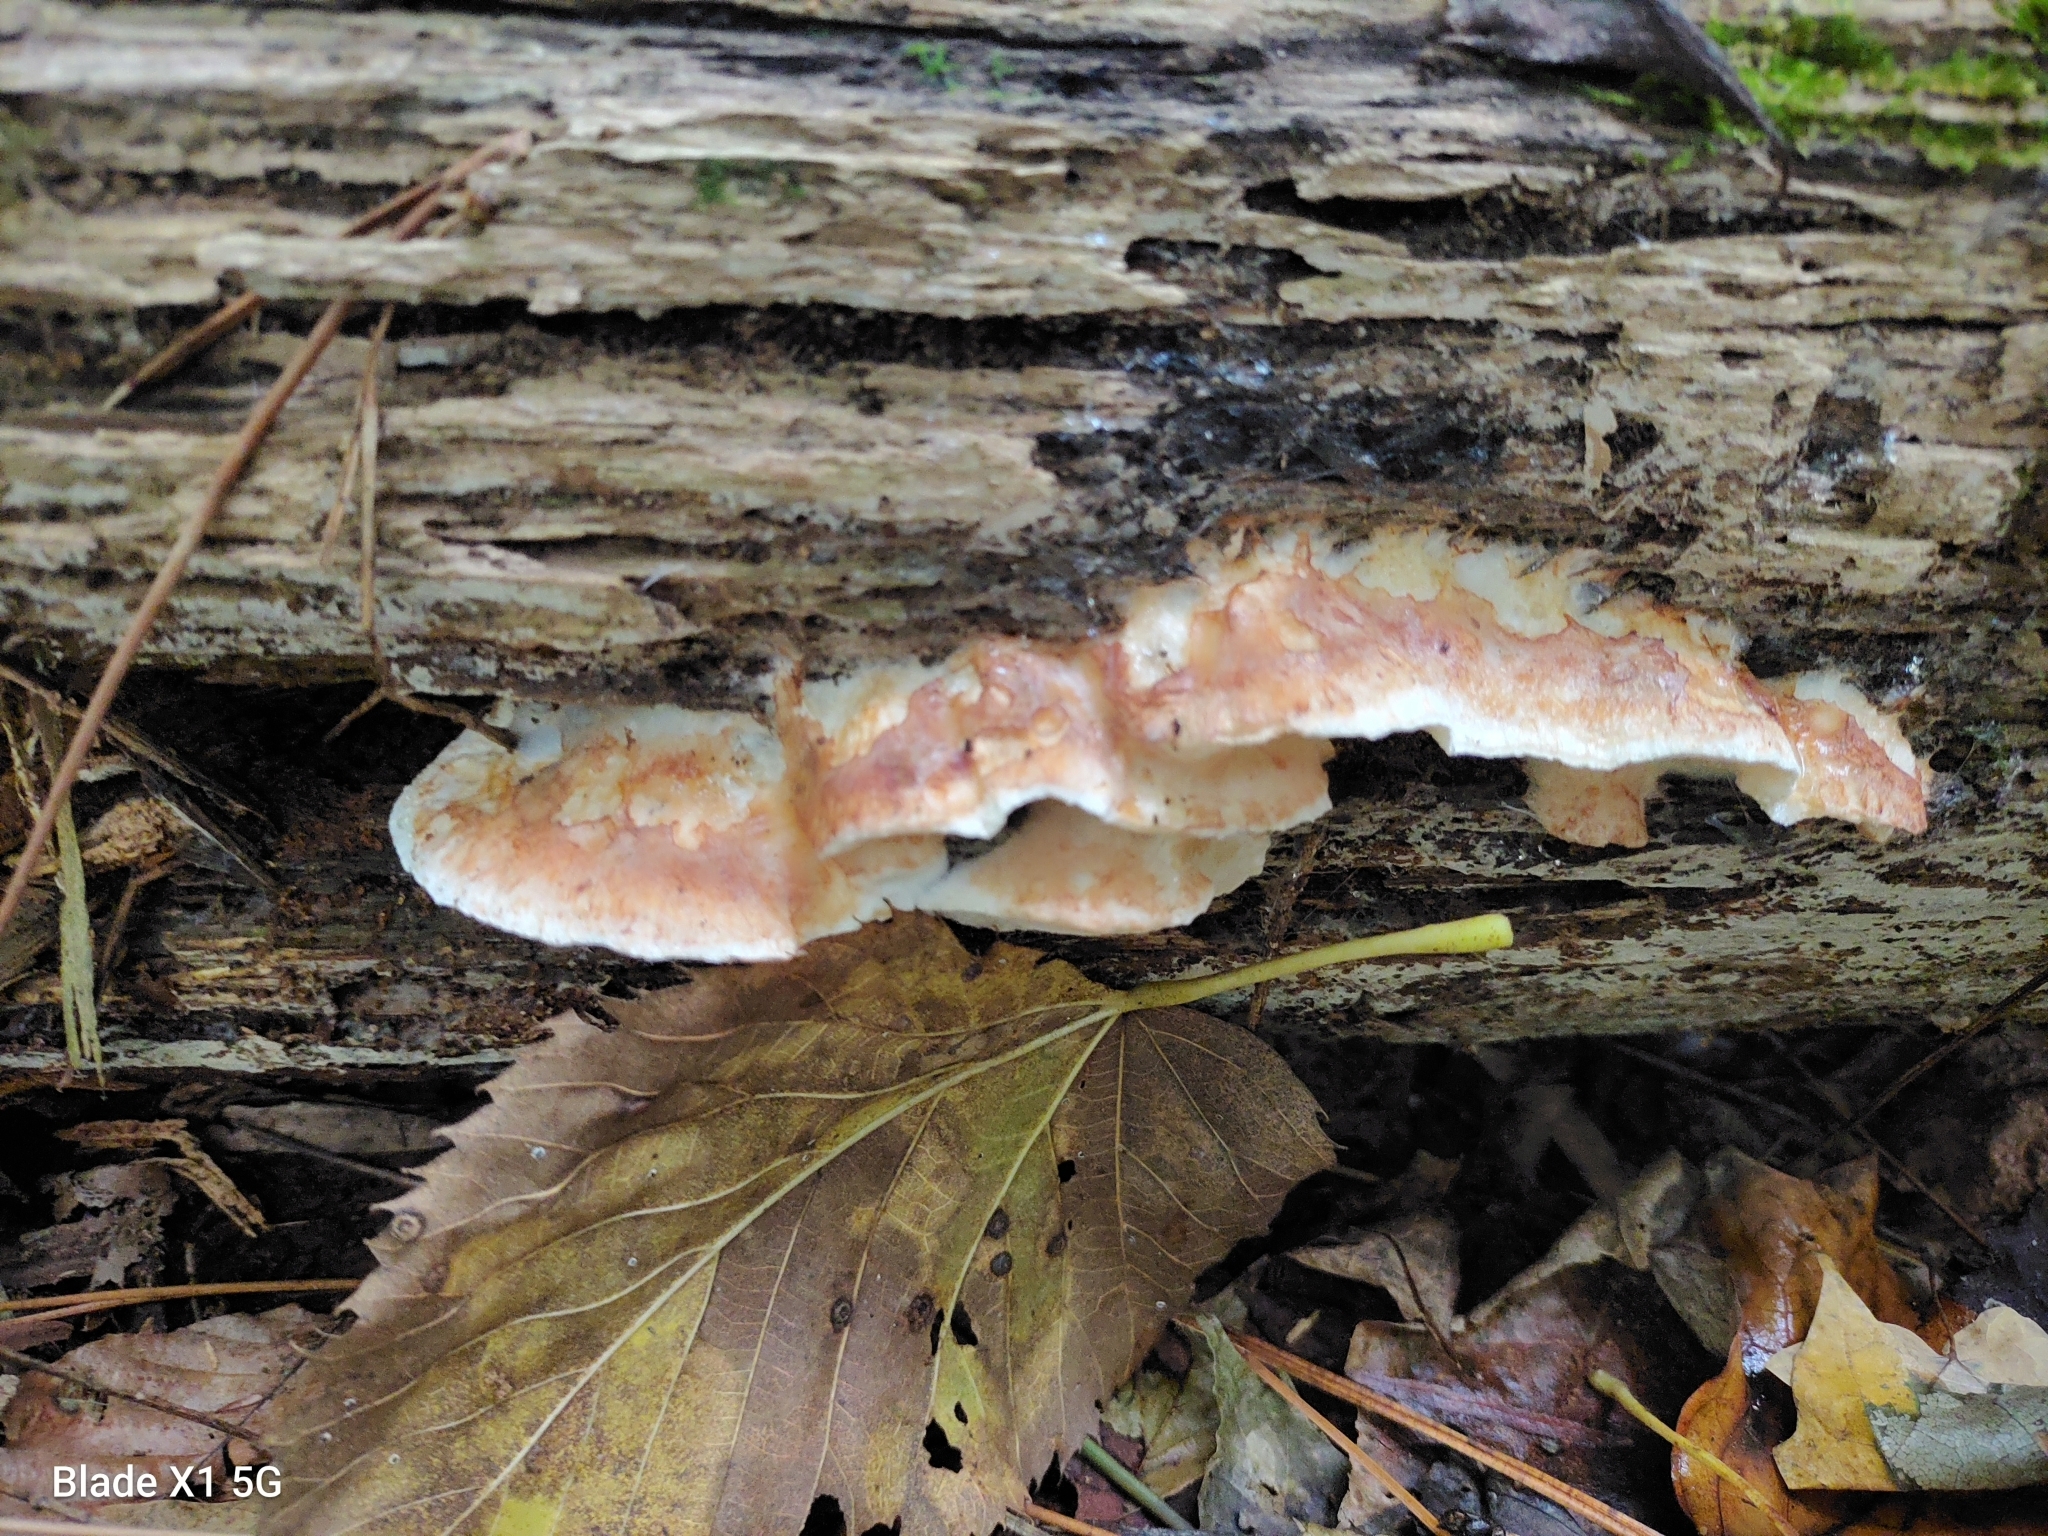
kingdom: Fungi
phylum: Basidiomycota
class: Agaricomycetes
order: Polyporales
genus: Fuscopostia
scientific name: Fuscopostia fragilis
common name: Brown-staining cheese polypore
